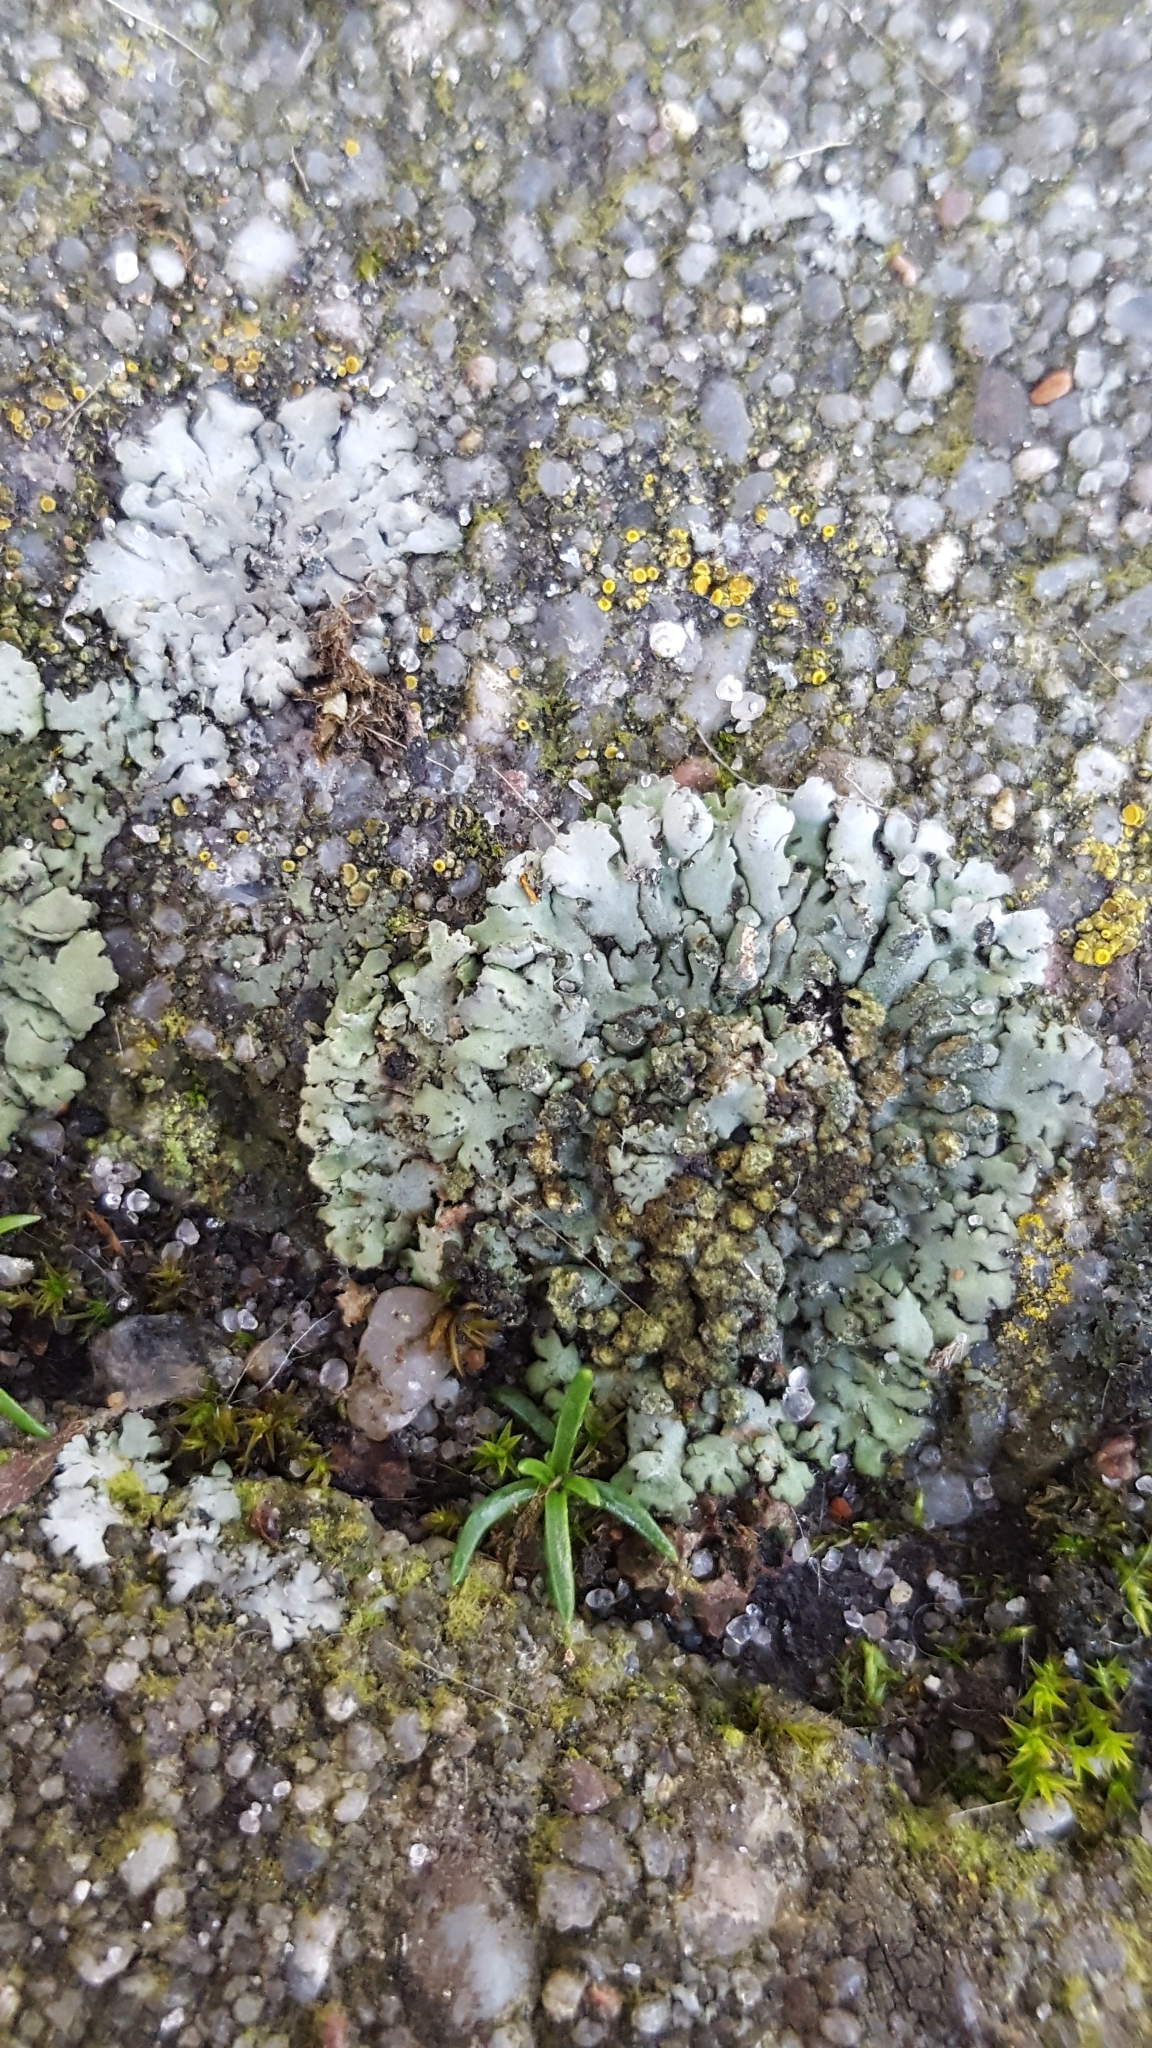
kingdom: Fungi
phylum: Ascomycota
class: Lecanoromycetes
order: Caliciales
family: Physciaceae
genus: Phaeophyscia
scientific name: Phaeophyscia orbicularis
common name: Mealy shadow lichen
